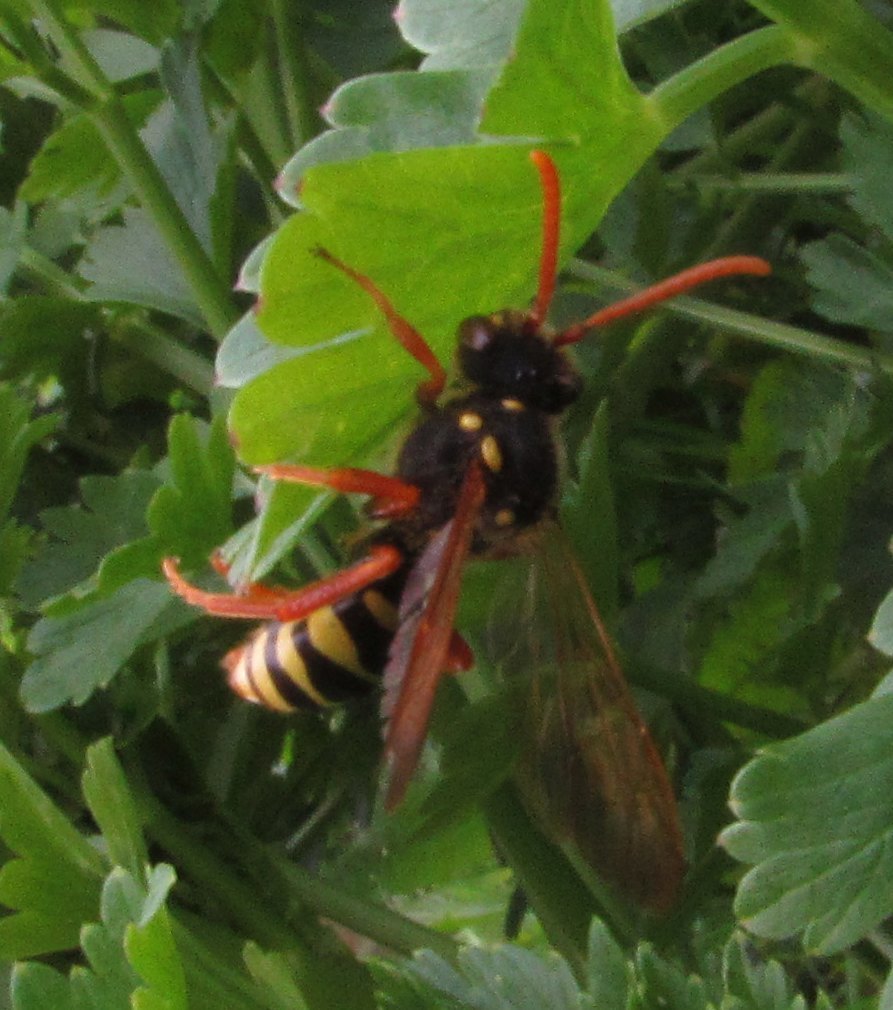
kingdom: Animalia
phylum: Arthropoda
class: Insecta
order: Hymenoptera
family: Apidae
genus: Nomada
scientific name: Nomada goodeniana
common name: Gooden's nomad bee
